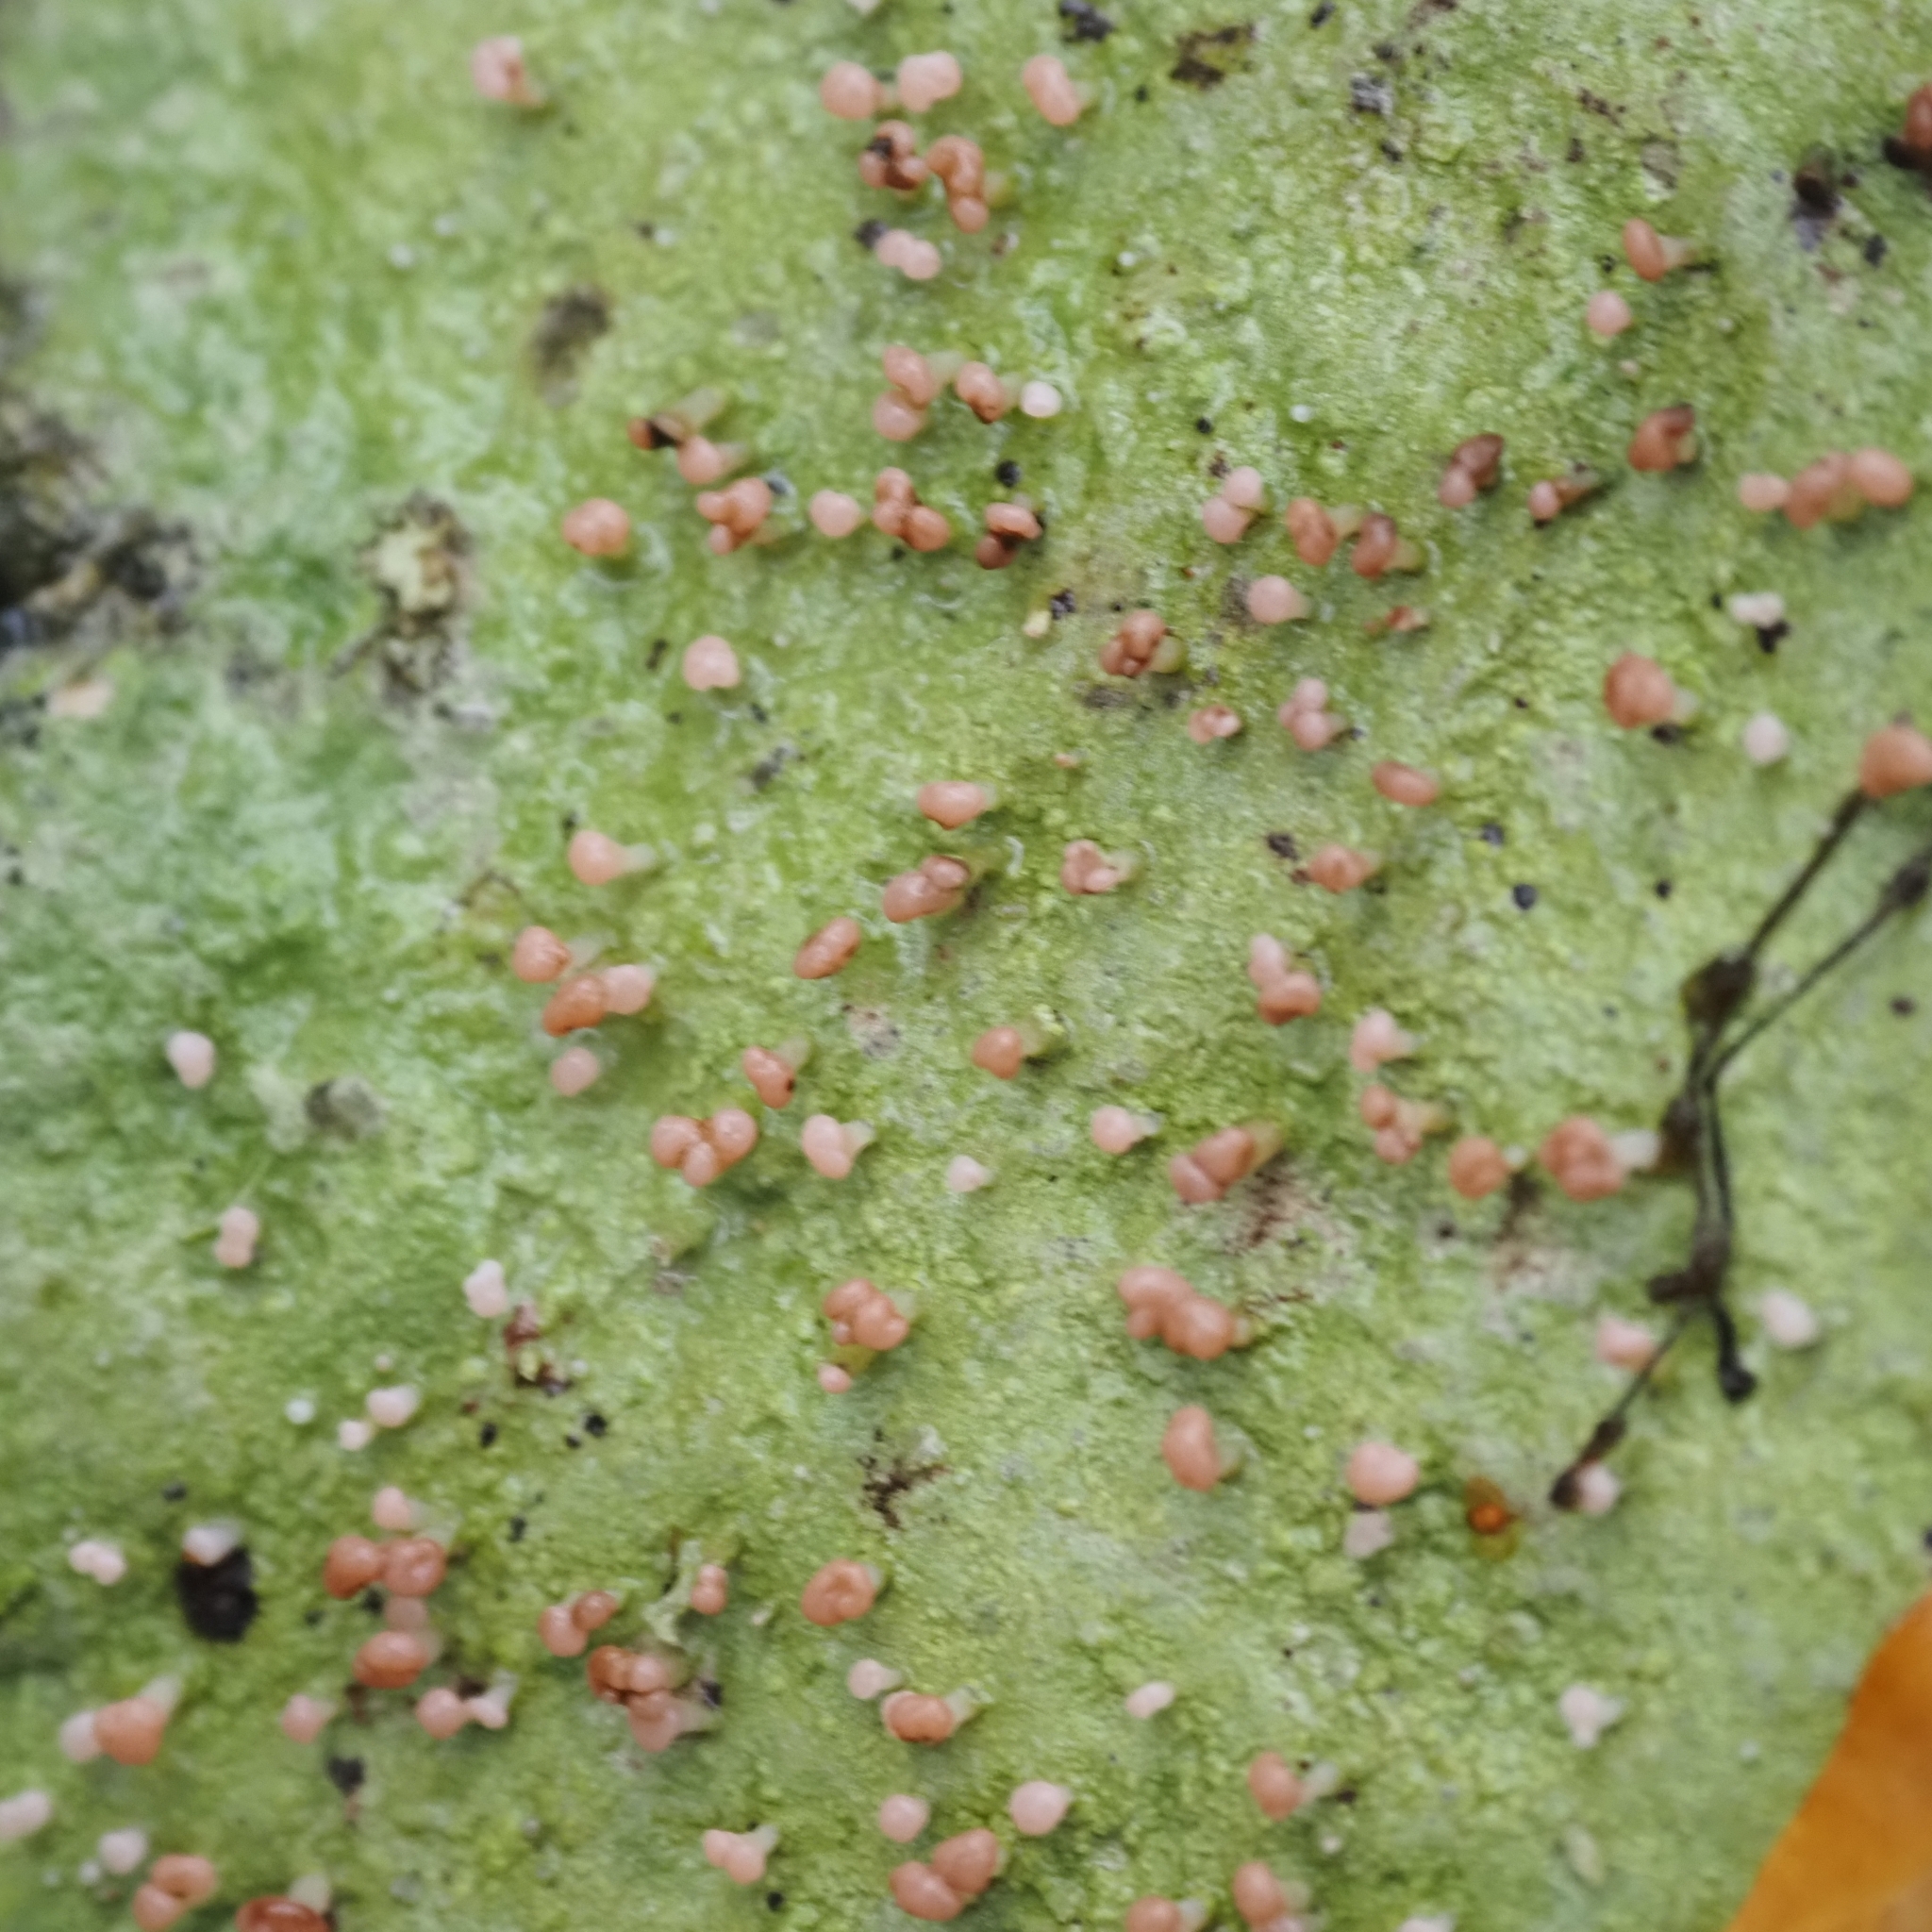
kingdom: Fungi
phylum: Ascomycota
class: Lecanoromycetes
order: Baeomycetales
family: Baeomycetaceae
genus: Baeomyces
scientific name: Baeomyces rufus
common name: Brown beret lichen
